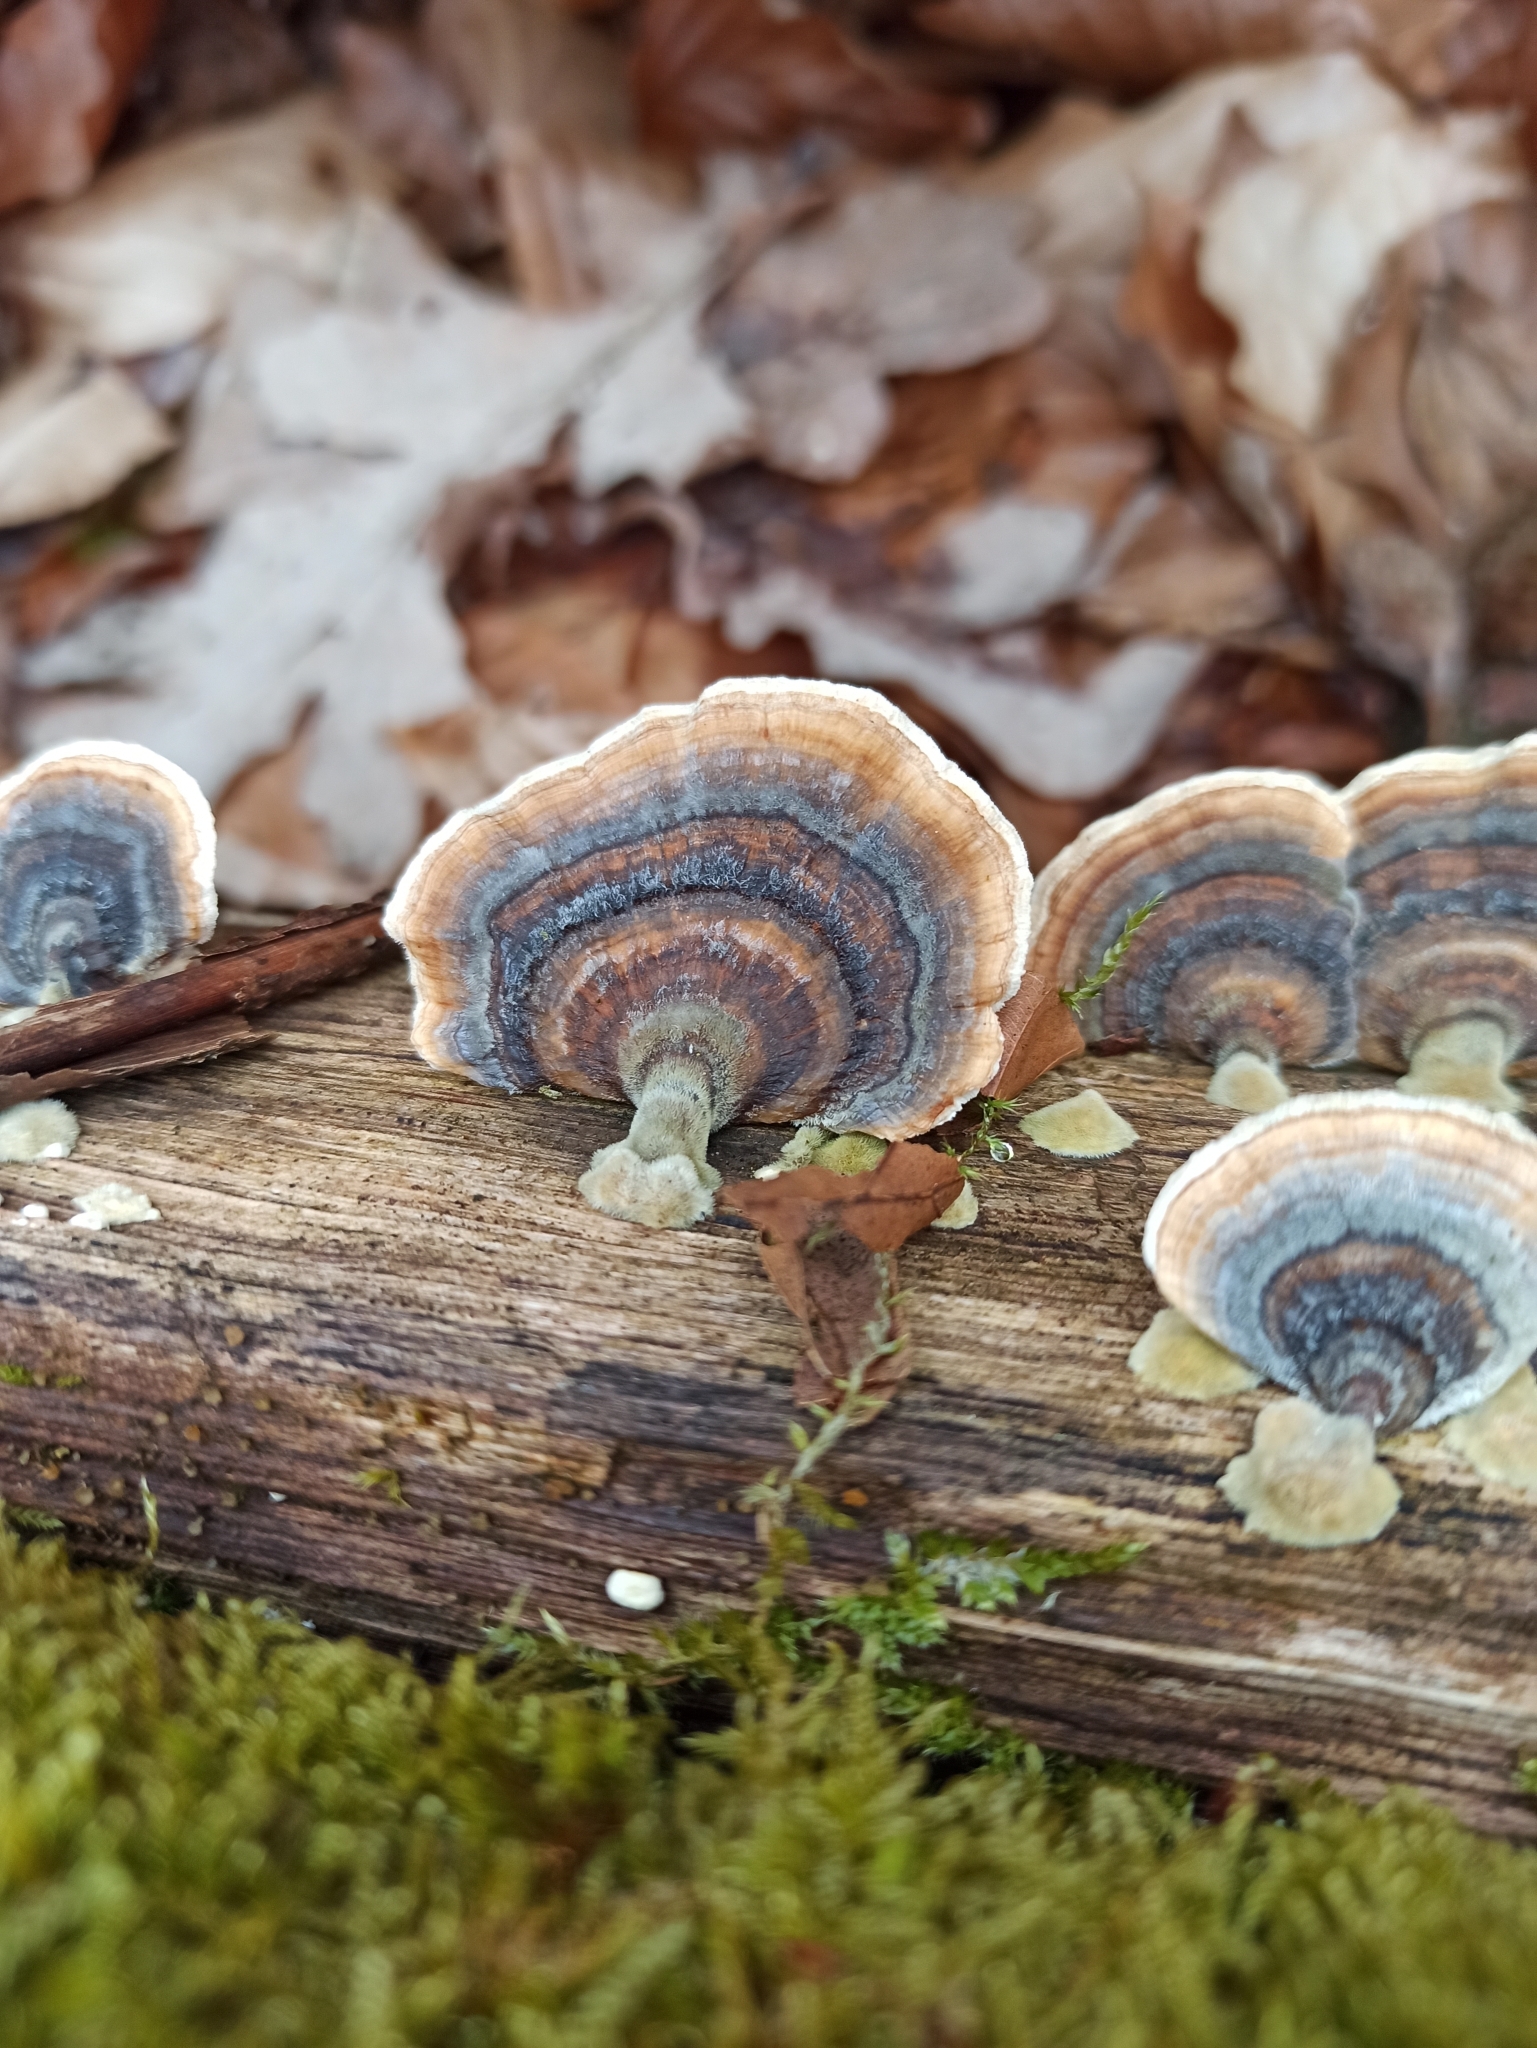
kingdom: Fungi
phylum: Basidiomycota
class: Agaricomycetes
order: Polyporales
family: Polyporaceae
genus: Trametes
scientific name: Trametes versicolor
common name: Turkeytail
